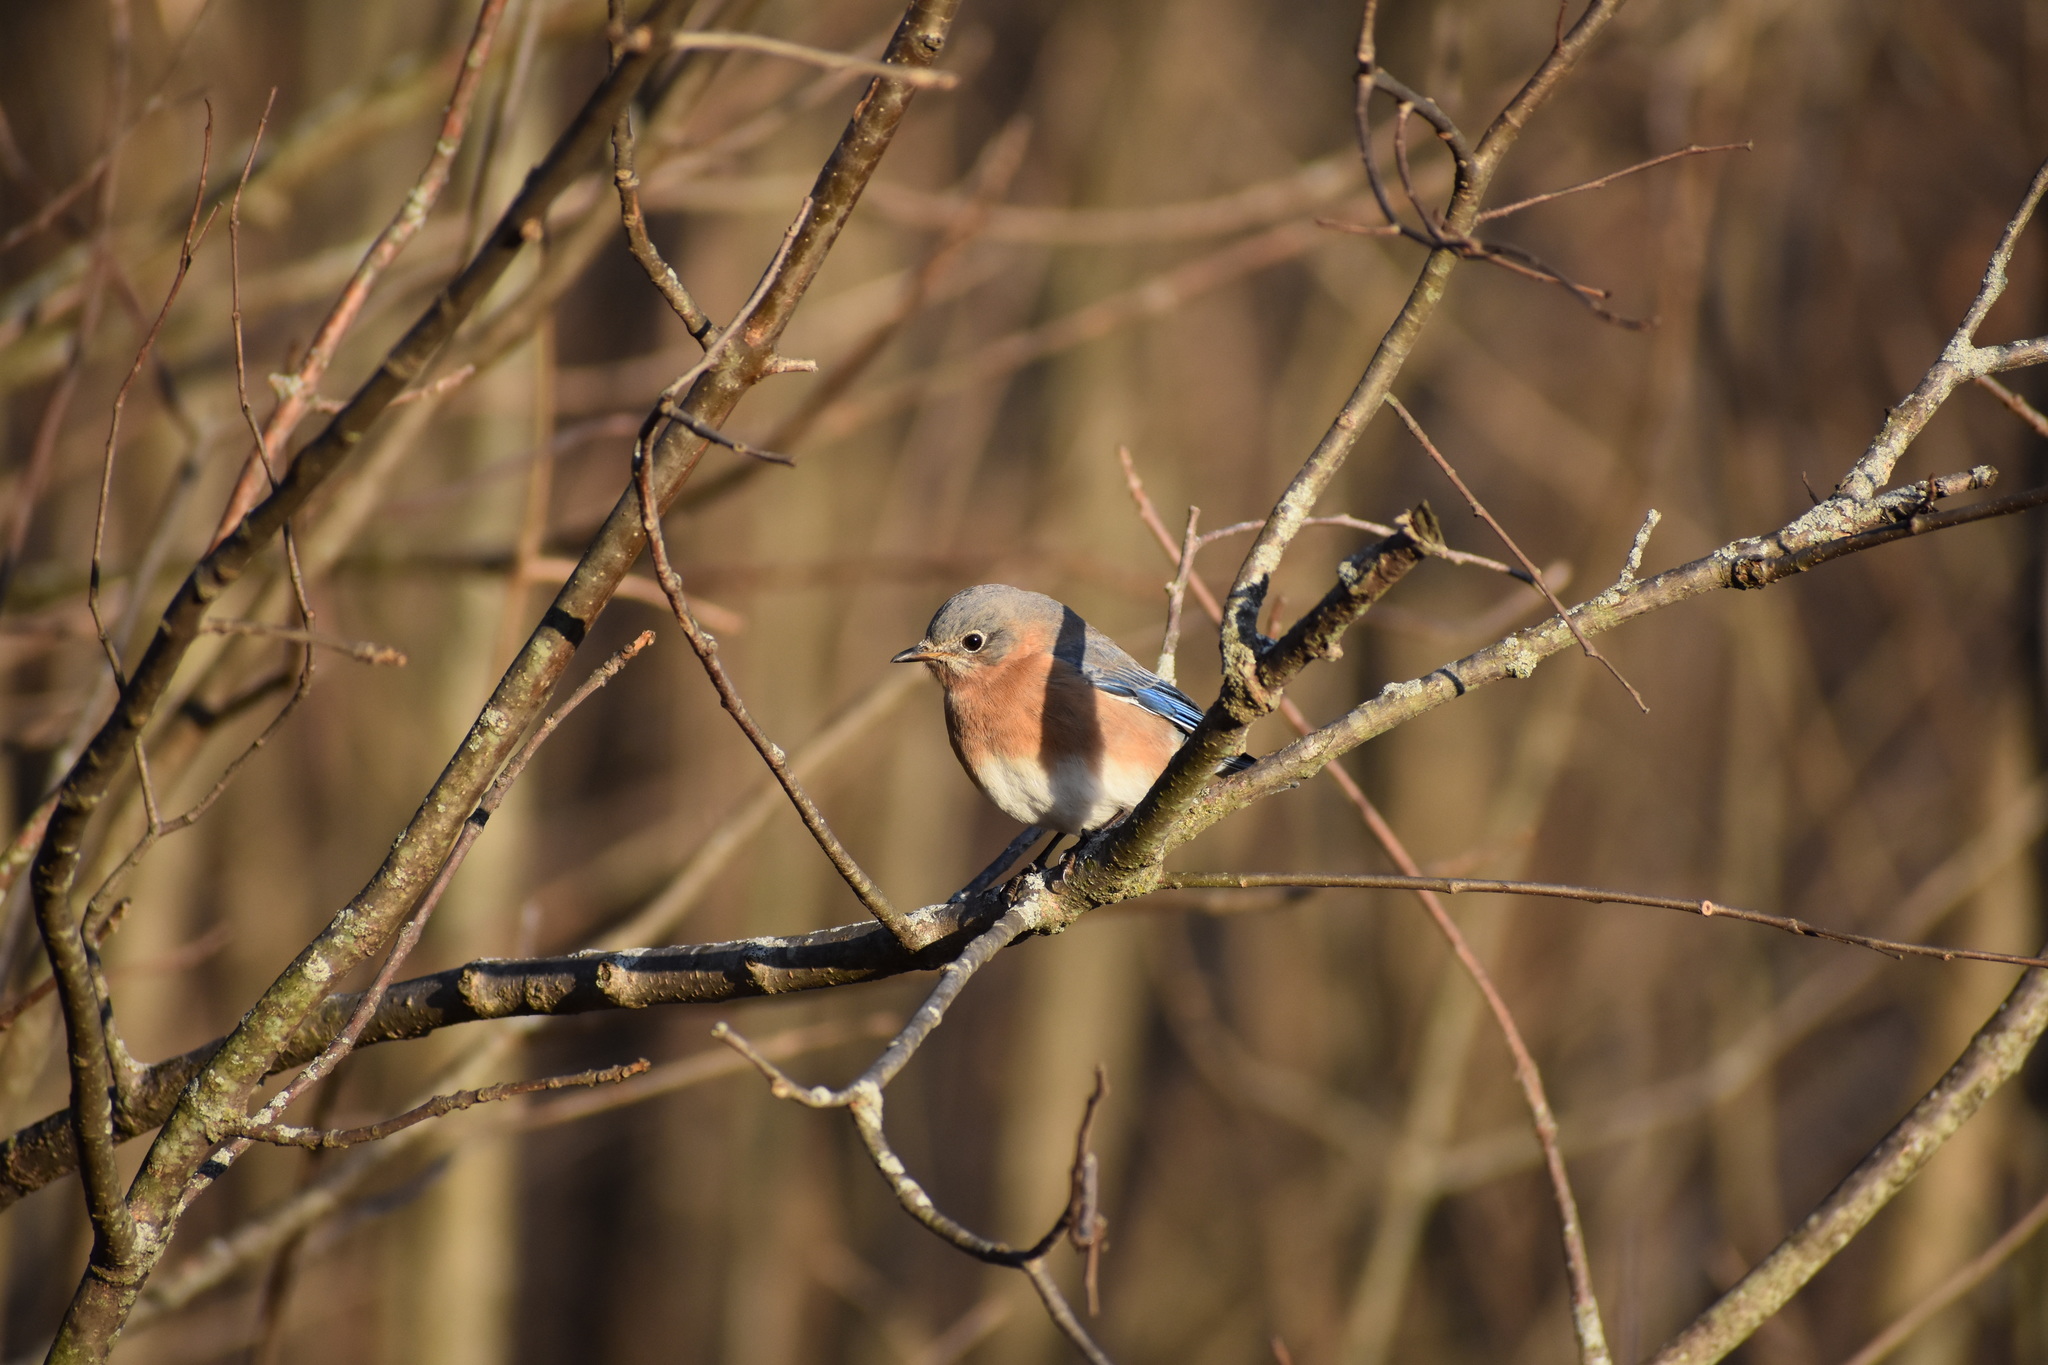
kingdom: Animalia
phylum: Chordata
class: Aves
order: Passeriformes
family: Turdidae
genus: Sialia
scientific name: Sialia sialis
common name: Eastern bluebird
